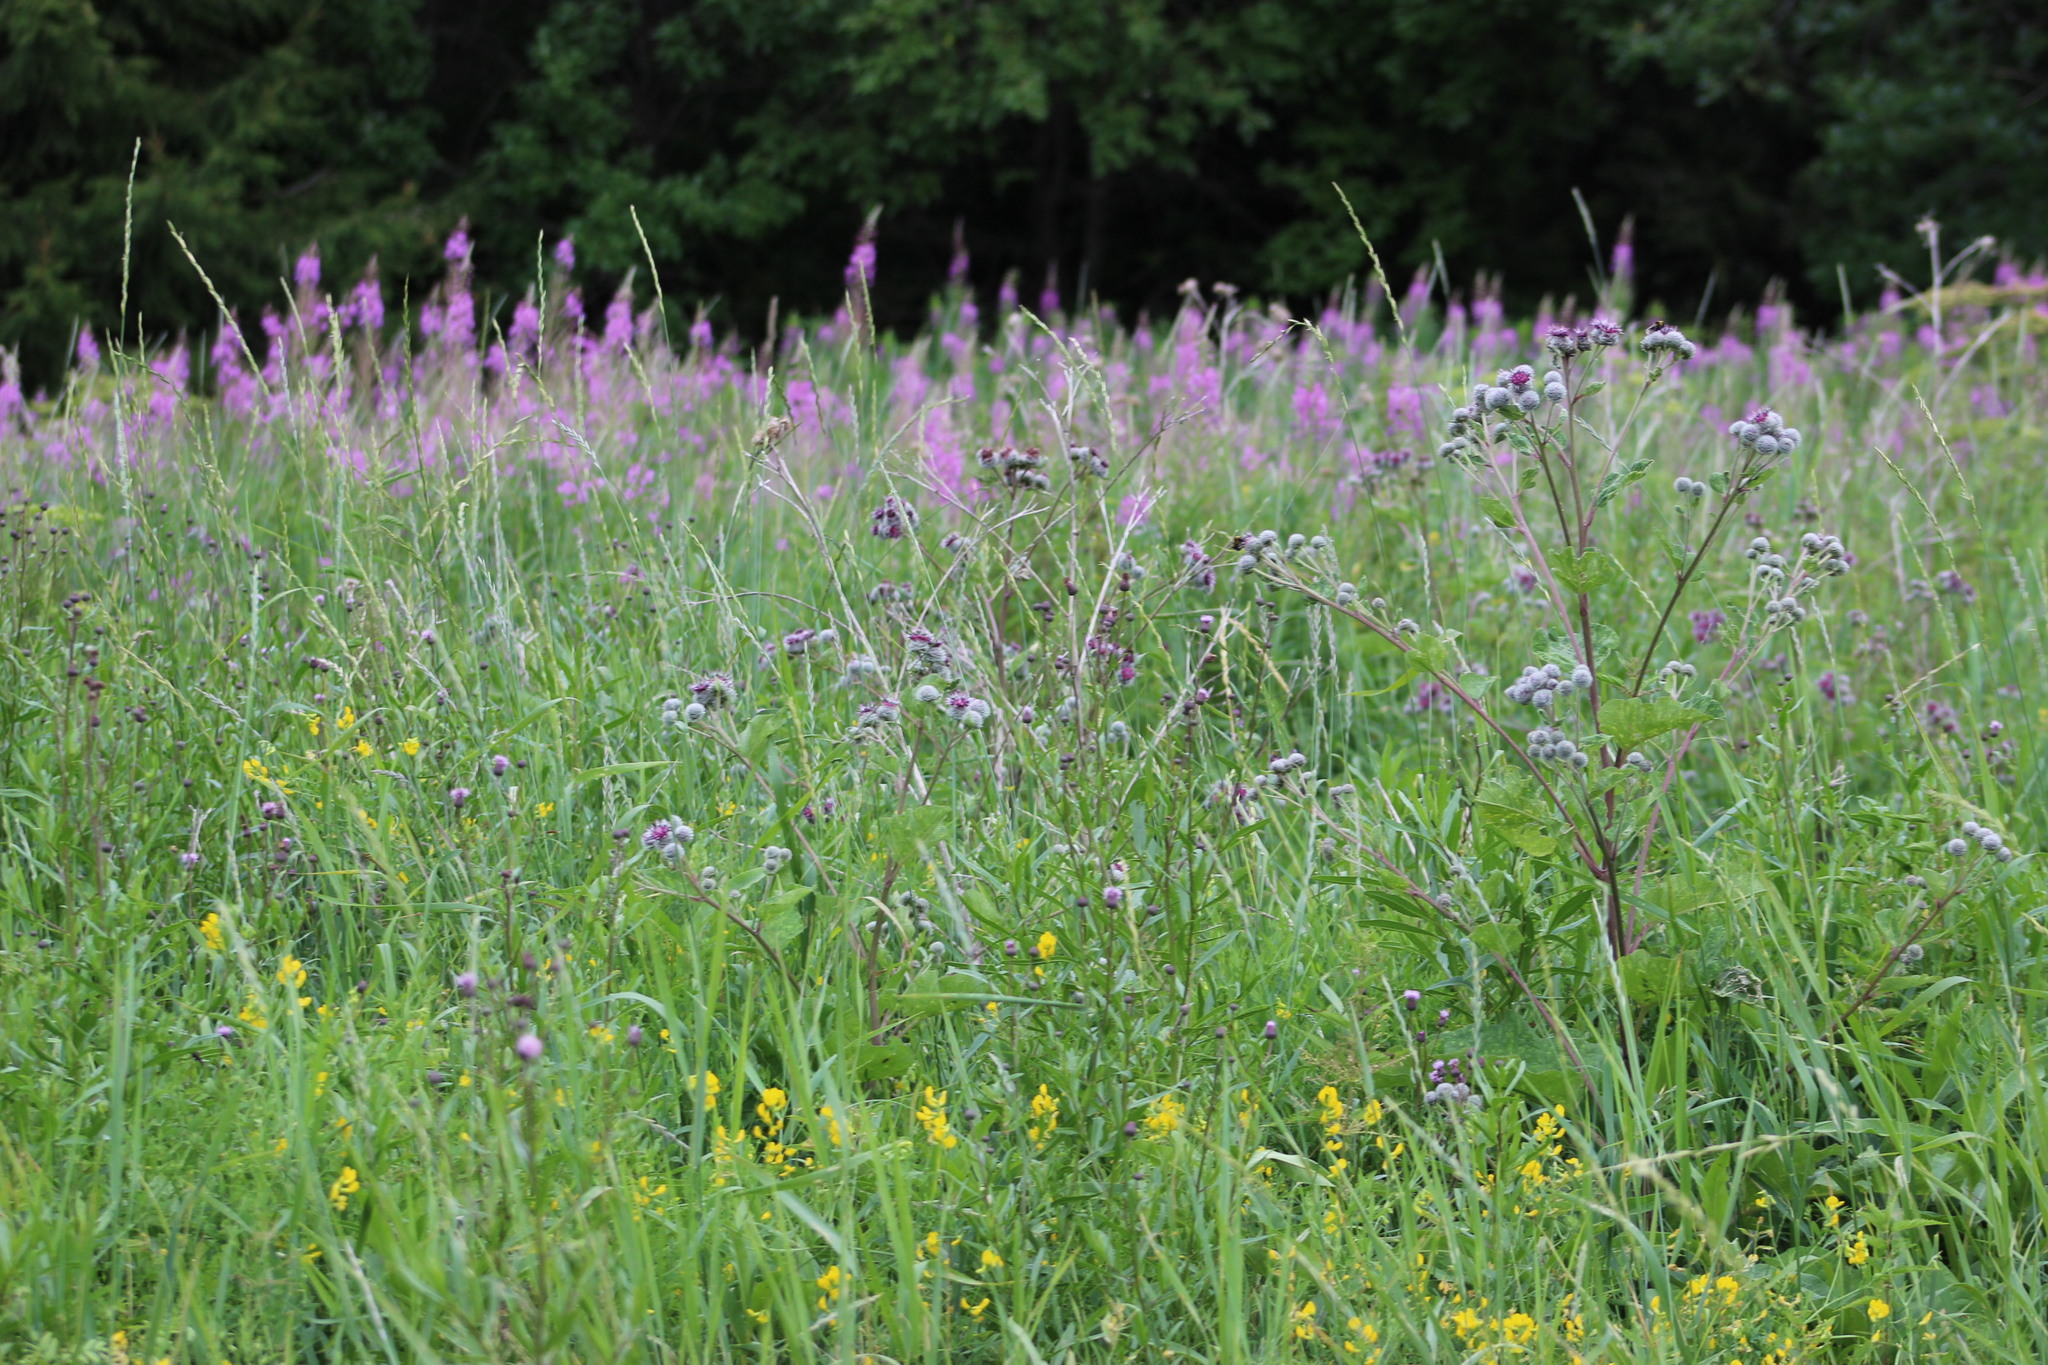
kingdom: Plantae
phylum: Tracheophyta
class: Magnoliopsida
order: Fabales
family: Fabaceae
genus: Lathyrus
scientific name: Lathyrus pratensis
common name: Meadow vetchling
